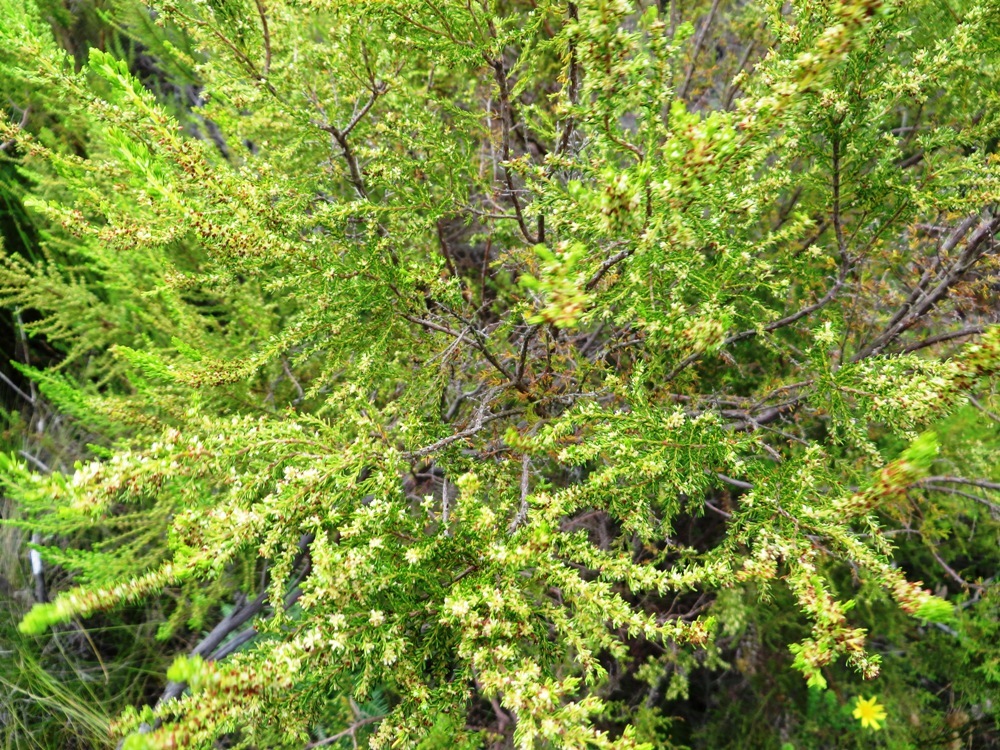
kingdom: Plantae
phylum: Tracheophyta
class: Magnoliopsida
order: Ericales
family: Ericaceae
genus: Erica
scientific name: Erica muscosa
